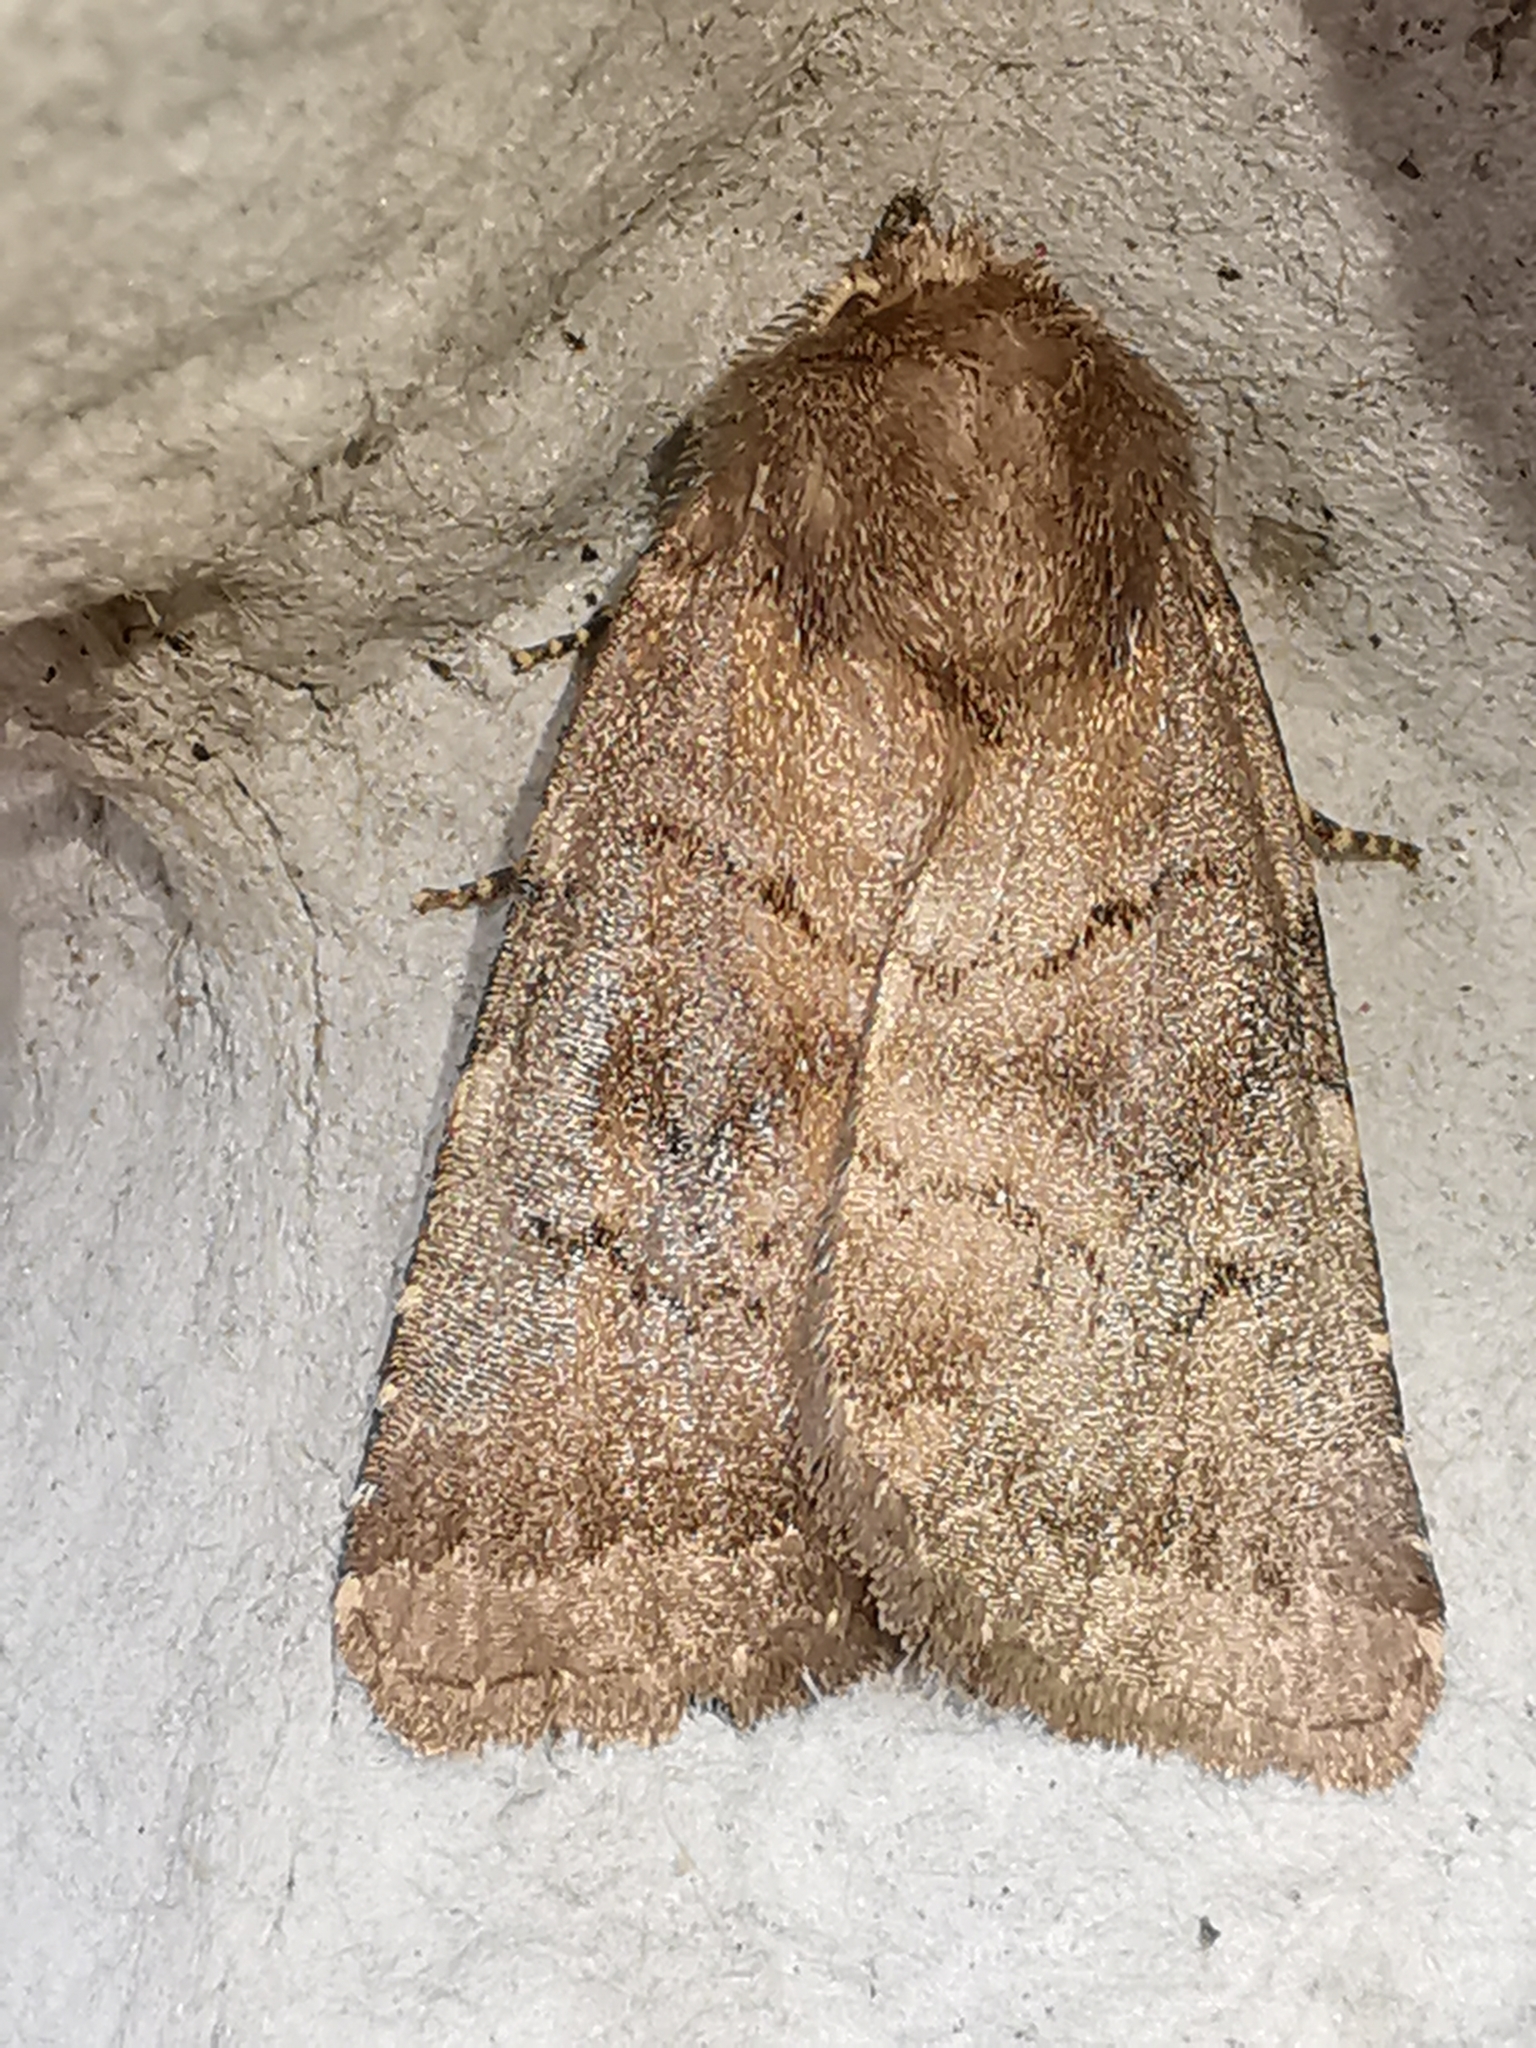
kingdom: Animalia
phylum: Arthropoda
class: Insecta
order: Lepidoptera
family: Noctuidae
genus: Charanyca
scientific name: Charanyca ferruginea
